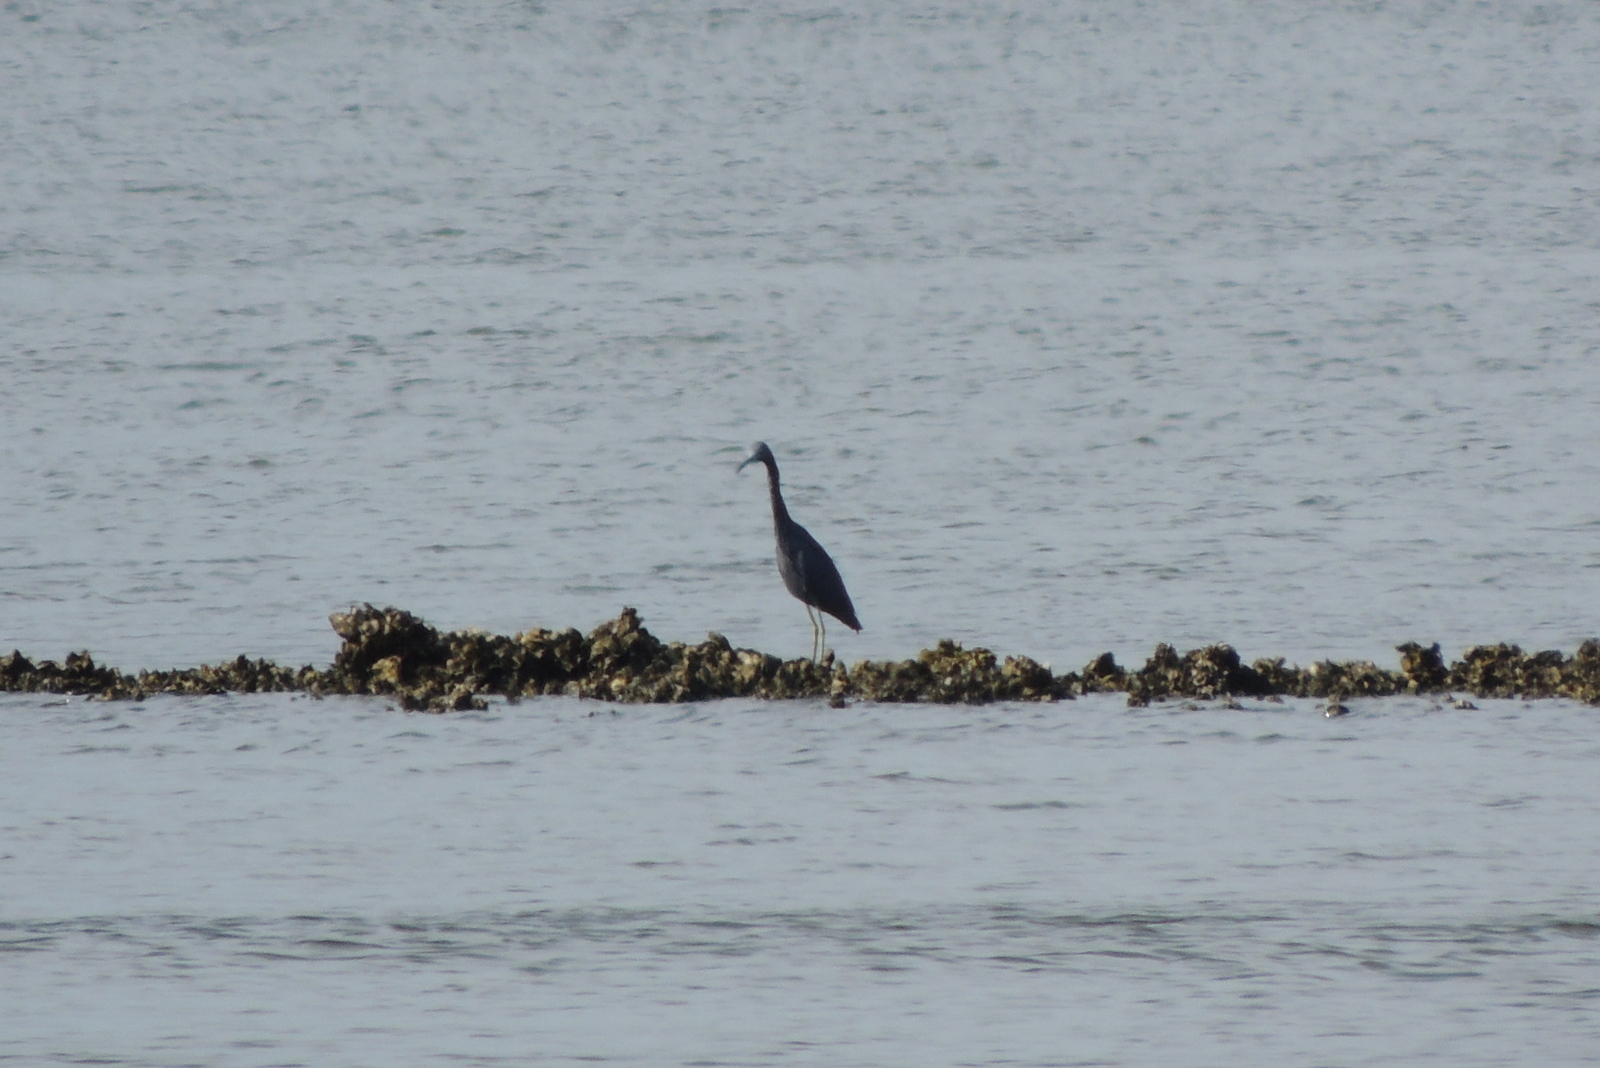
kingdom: Animalia
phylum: Chordata
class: Aves
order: Pelecaniformes
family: Ardeidae
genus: Egretta
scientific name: Egretta caerulea
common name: Little blue heron
